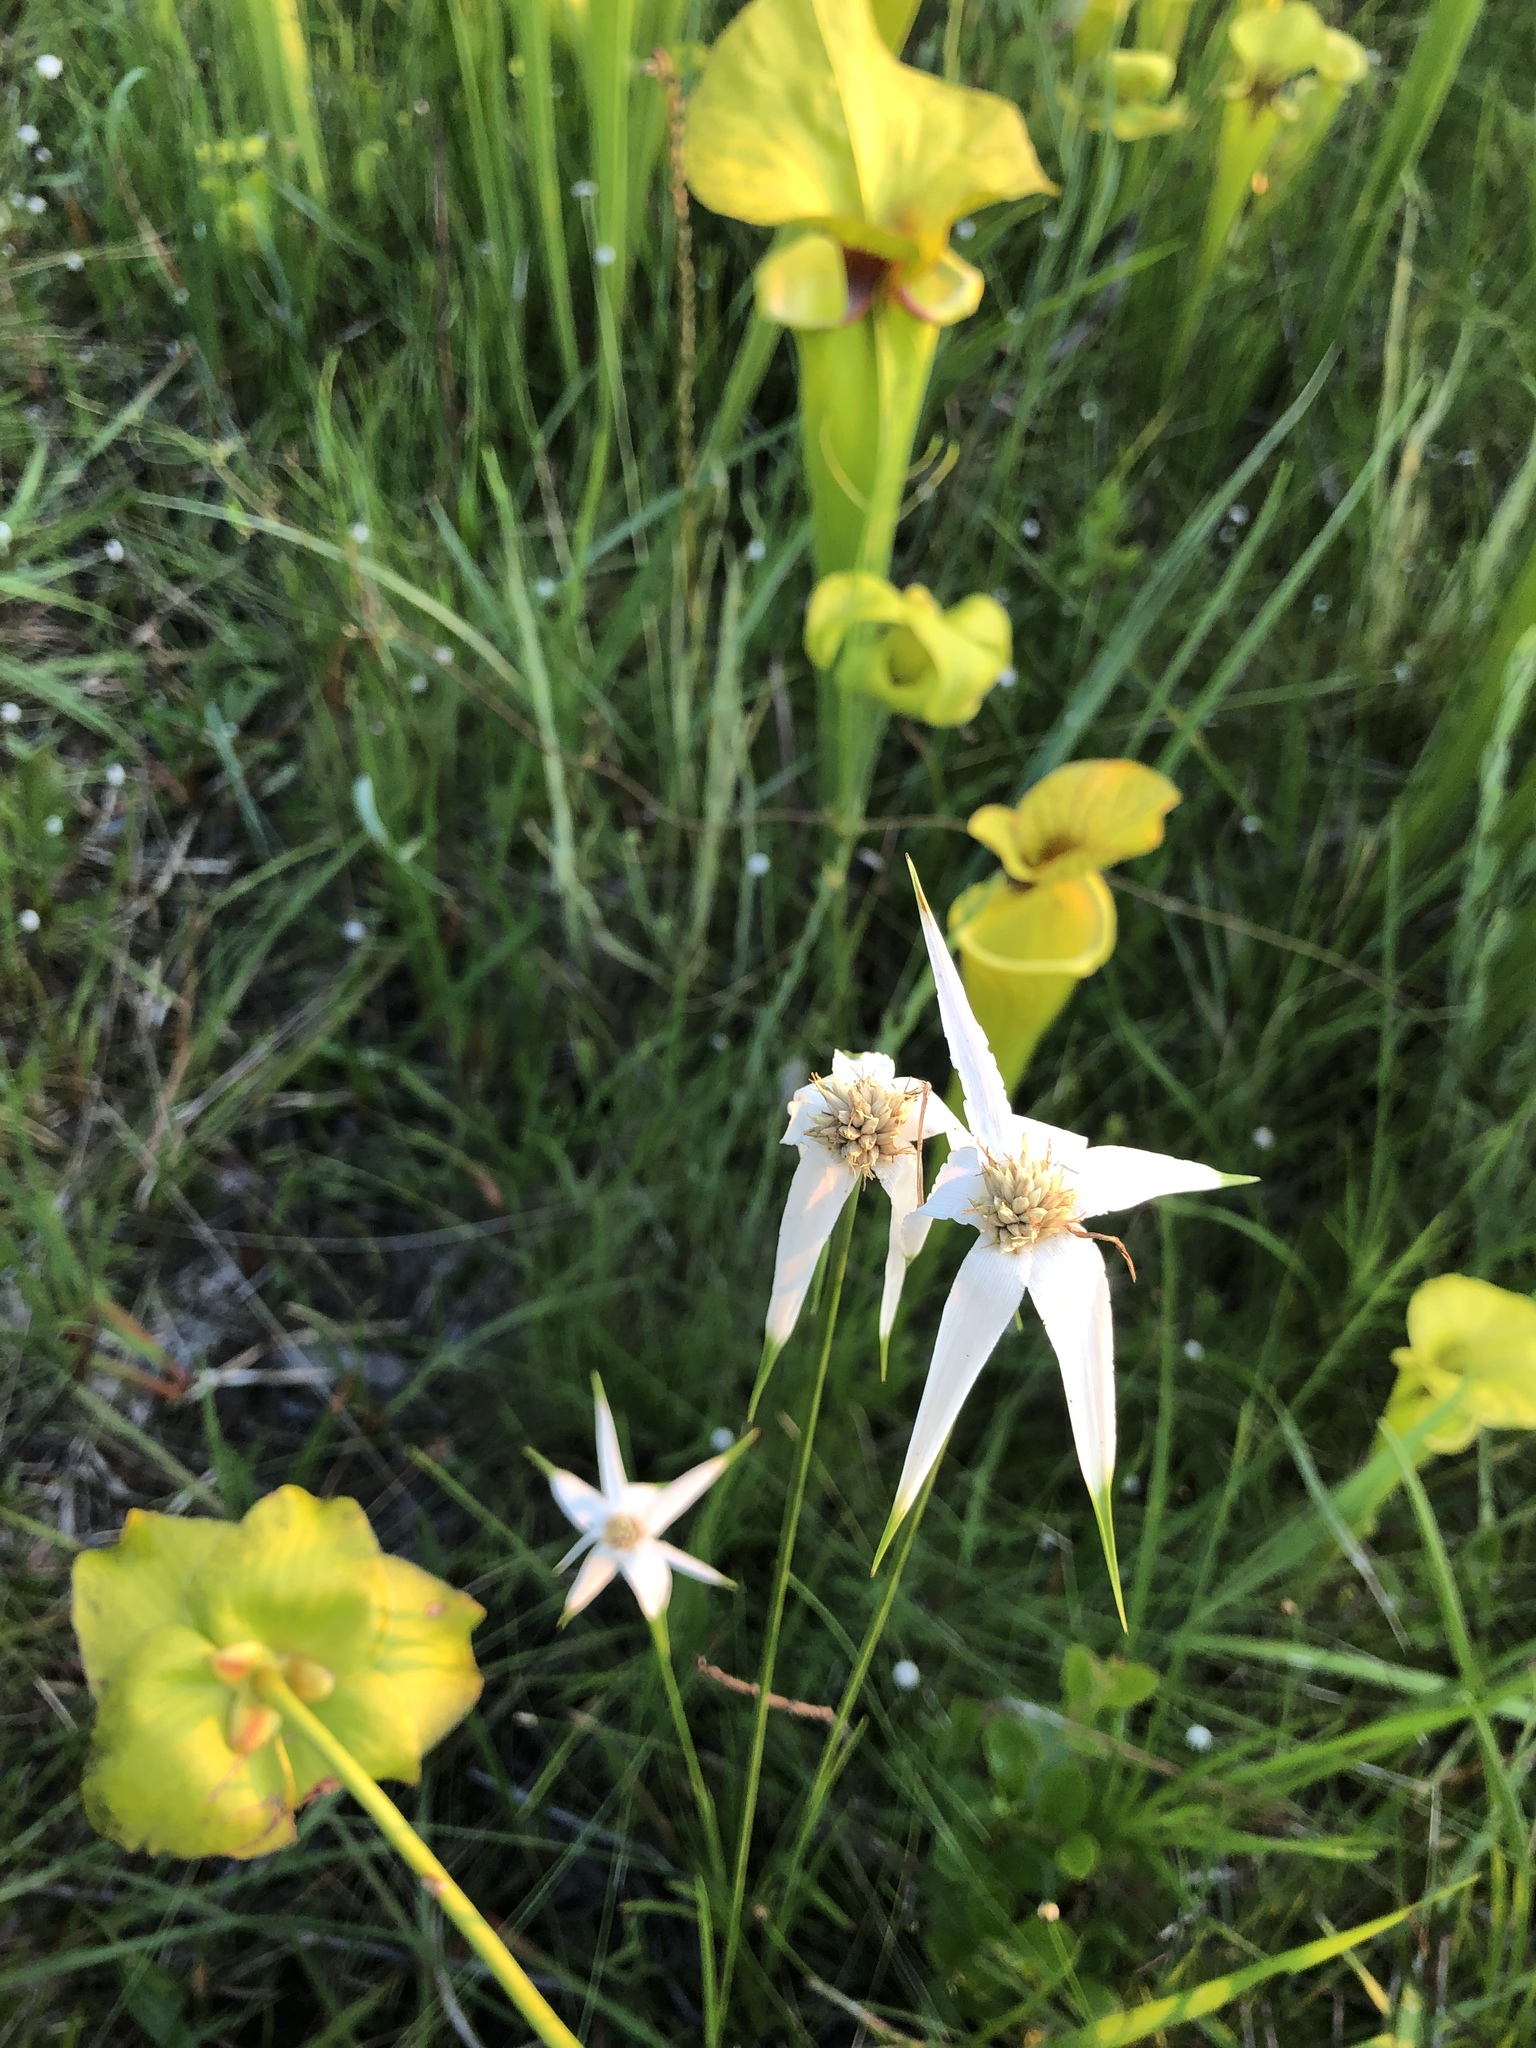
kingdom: Plantae
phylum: Tracheophyta
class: Liliopsida
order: Poales
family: Cyperaceae
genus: Rhynchospora
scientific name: Rhynchospora latifolia
